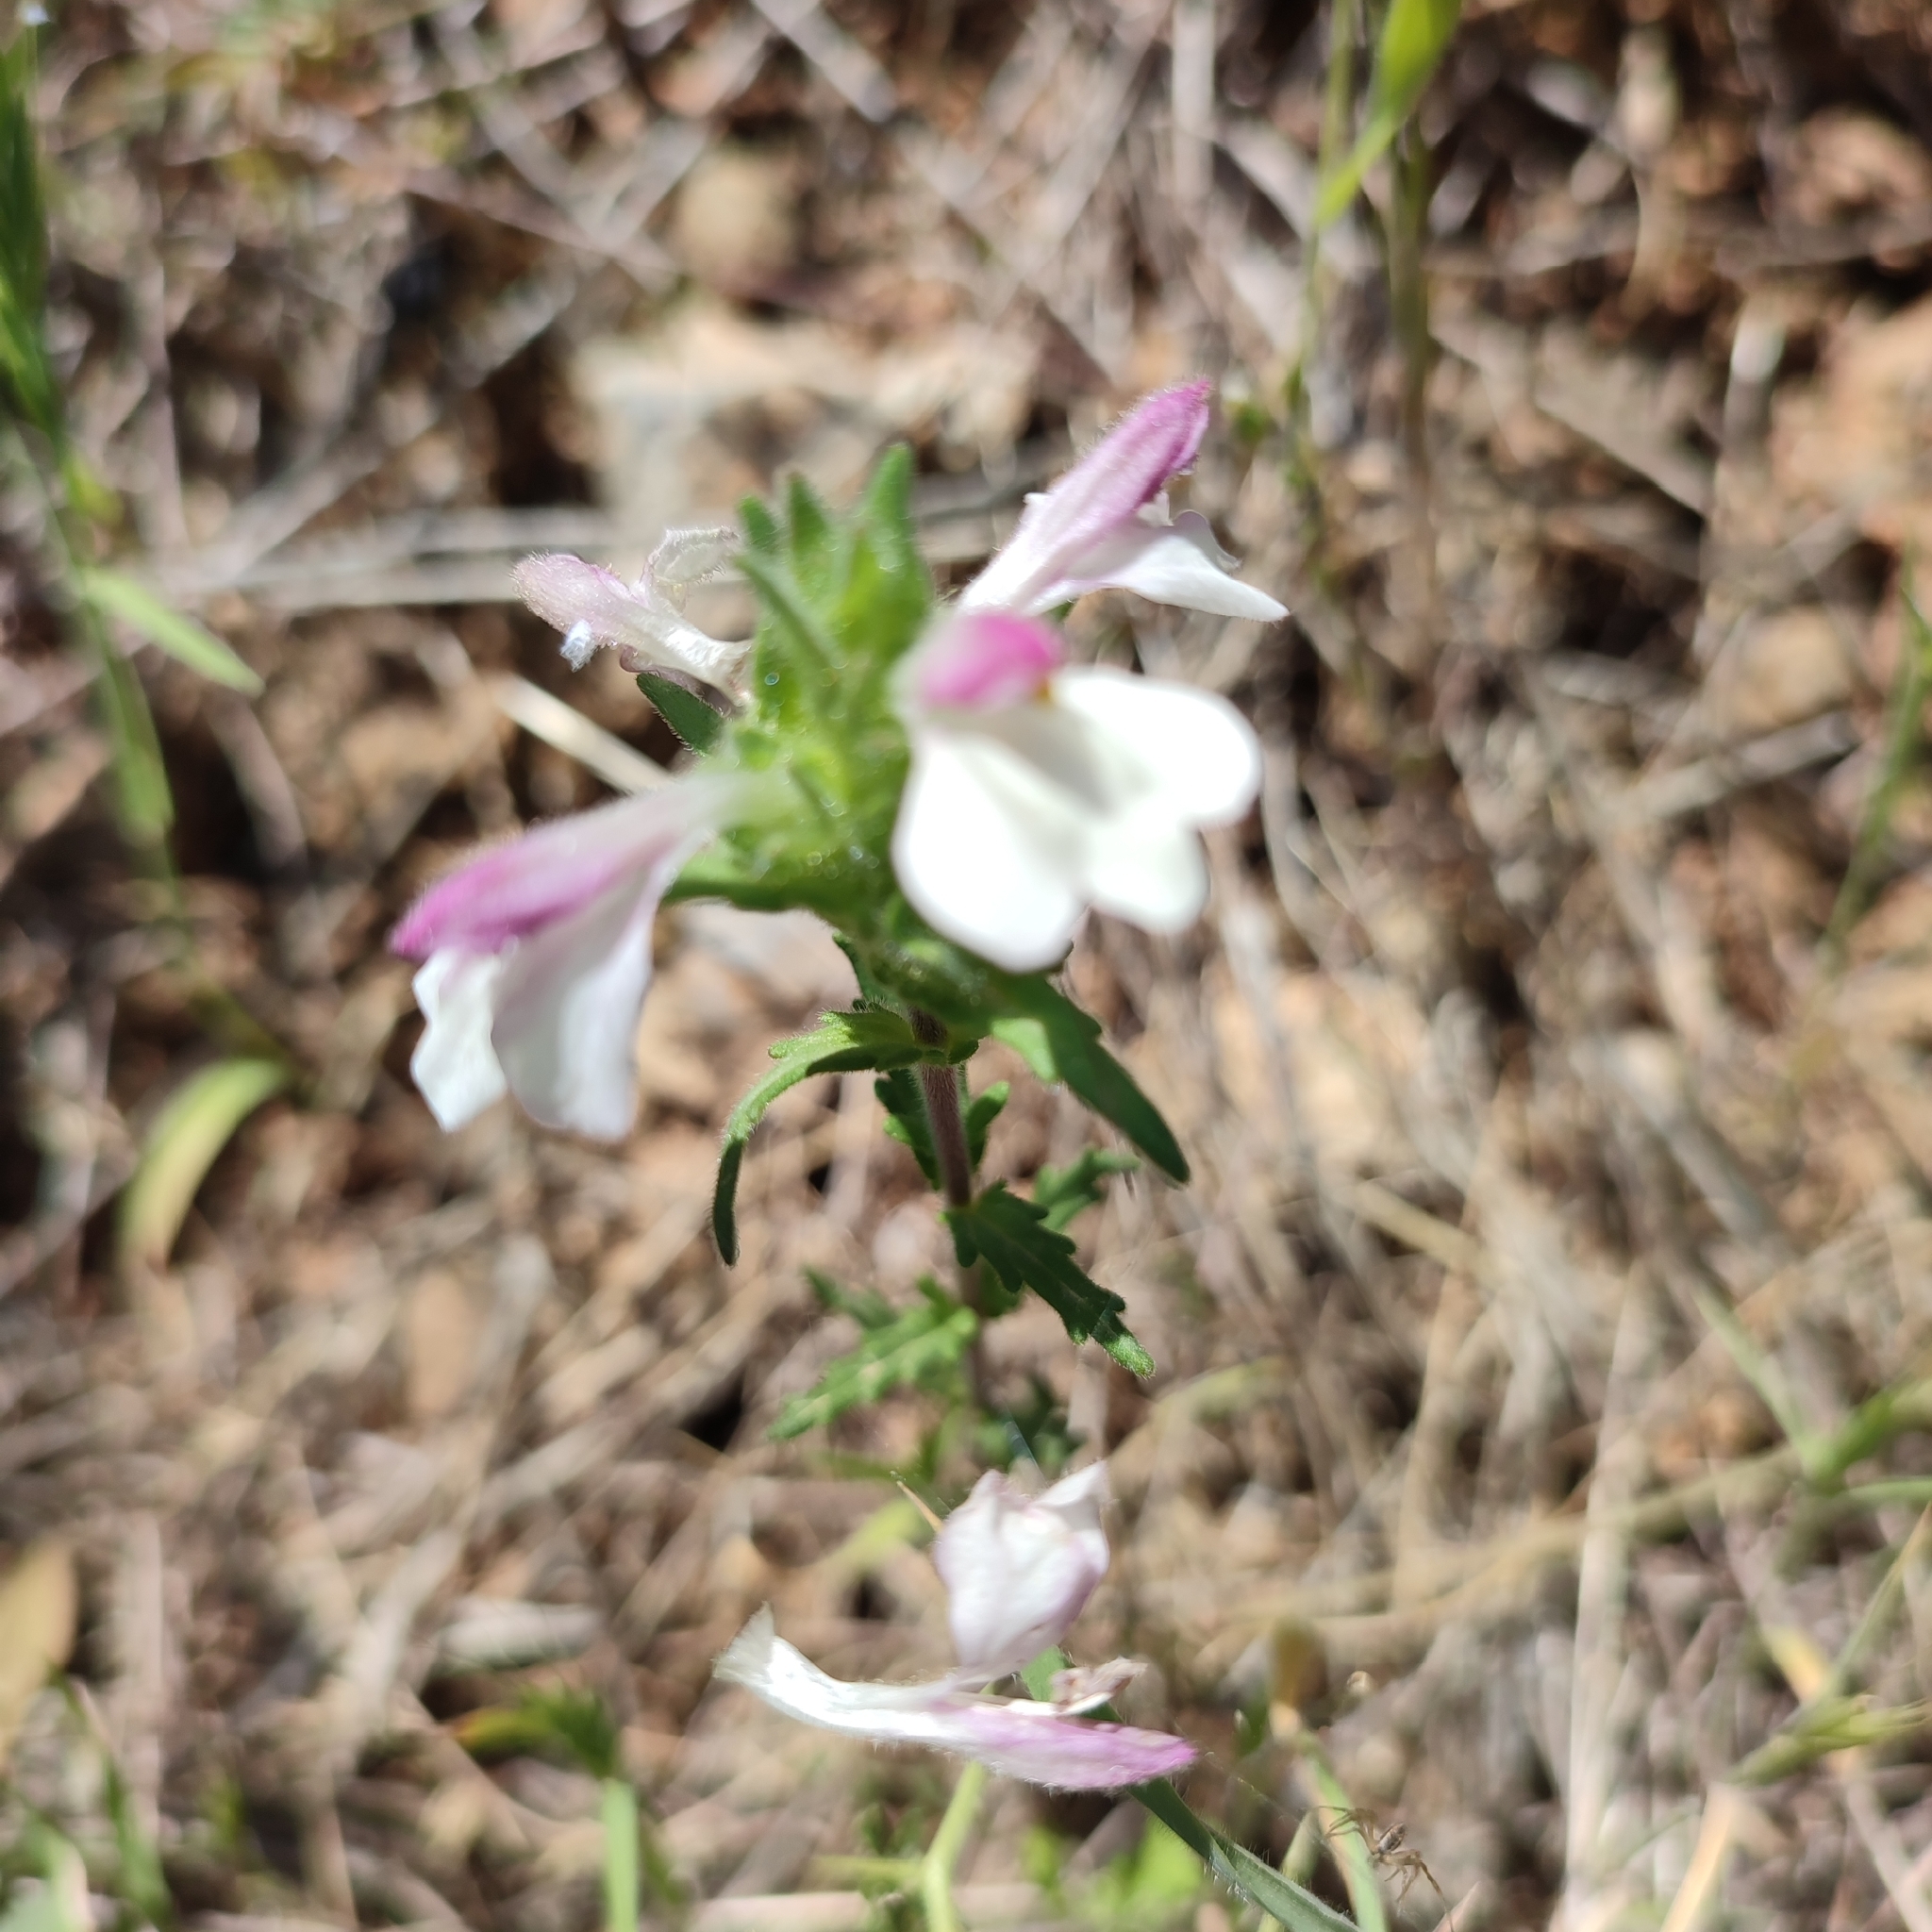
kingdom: Plantae
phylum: Tracheophyta
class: Magnoliopsida
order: Lamiales
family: Orobanchaceae
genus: Bellardia
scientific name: Bellardia trixago
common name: Mediterranean lineseed
